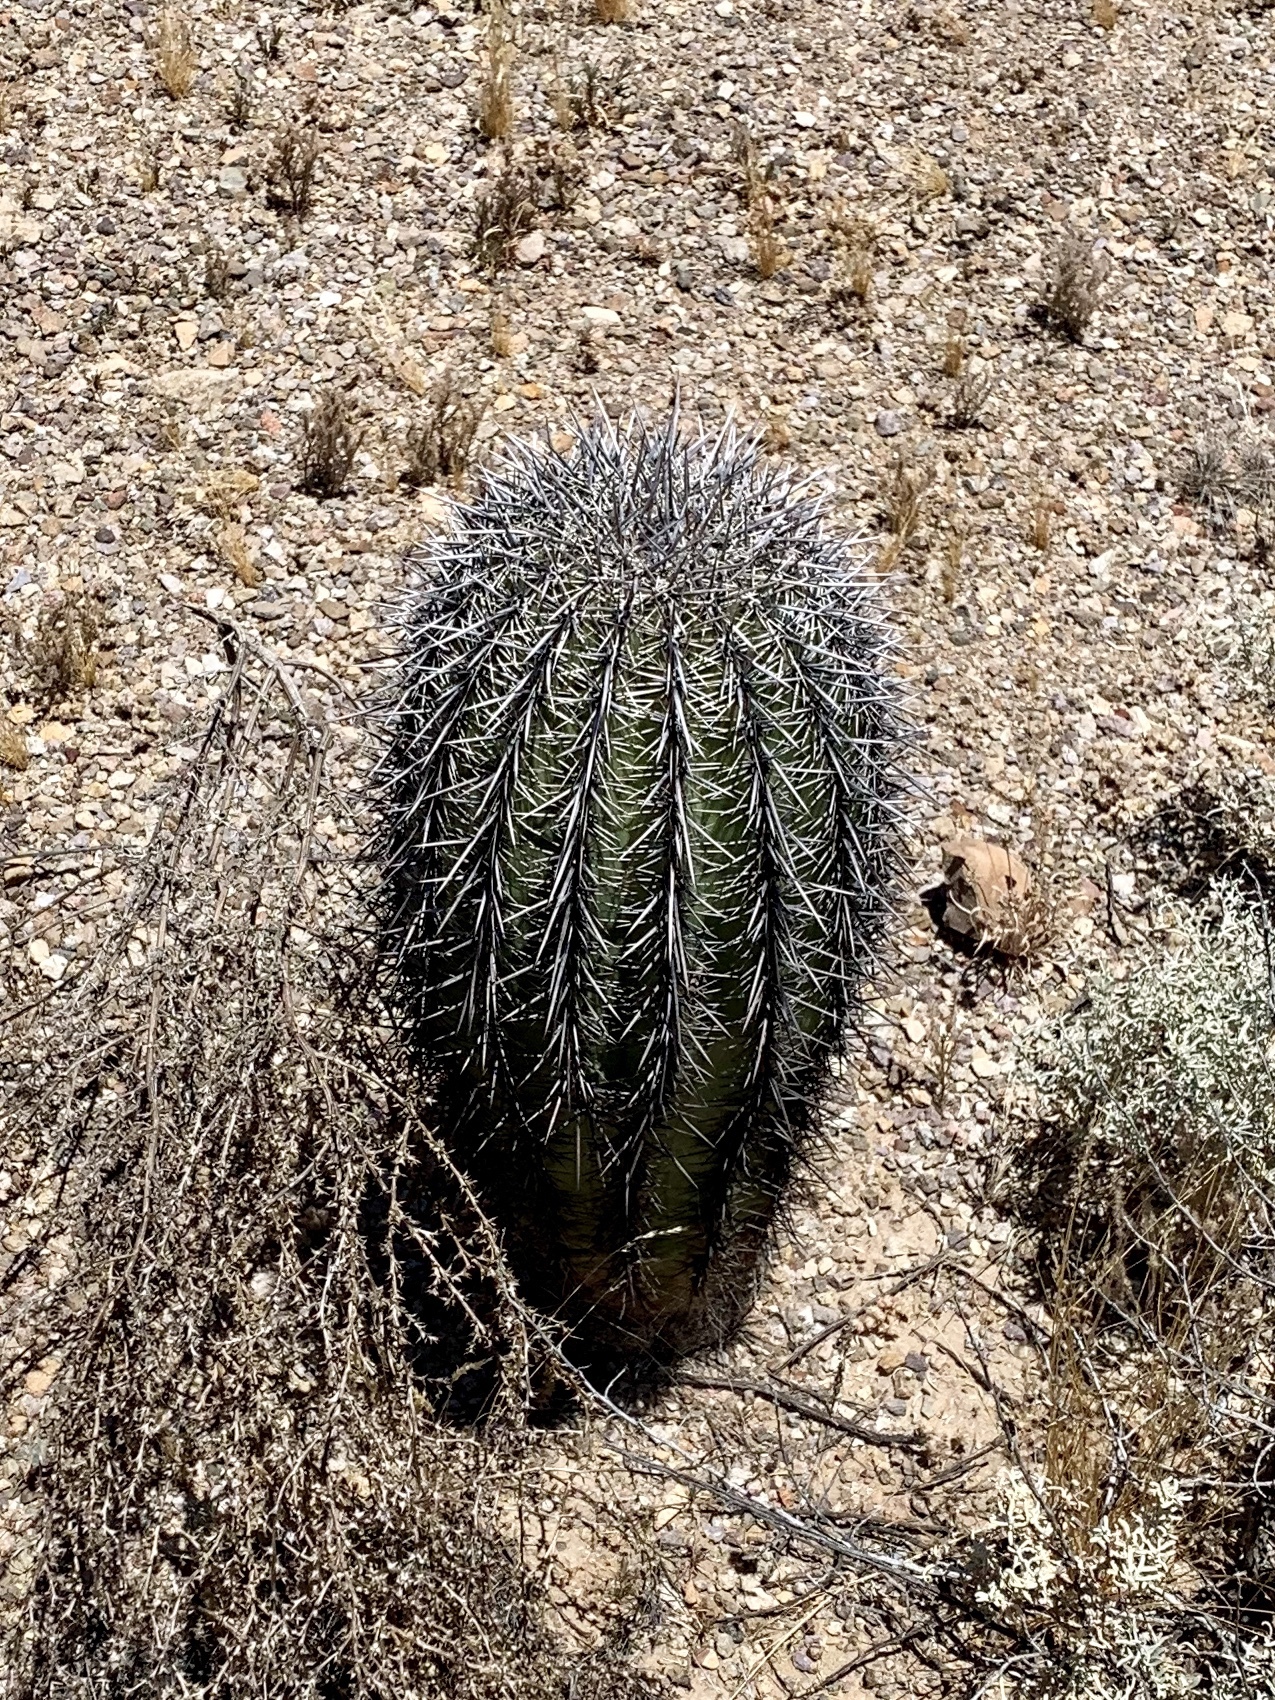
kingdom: Plantae
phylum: Tracheophyta
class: Magnoliopsida
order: Caryophyllales
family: Cactaceae
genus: Carnegiea
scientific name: Carnegiea gigantea
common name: Saguaro
